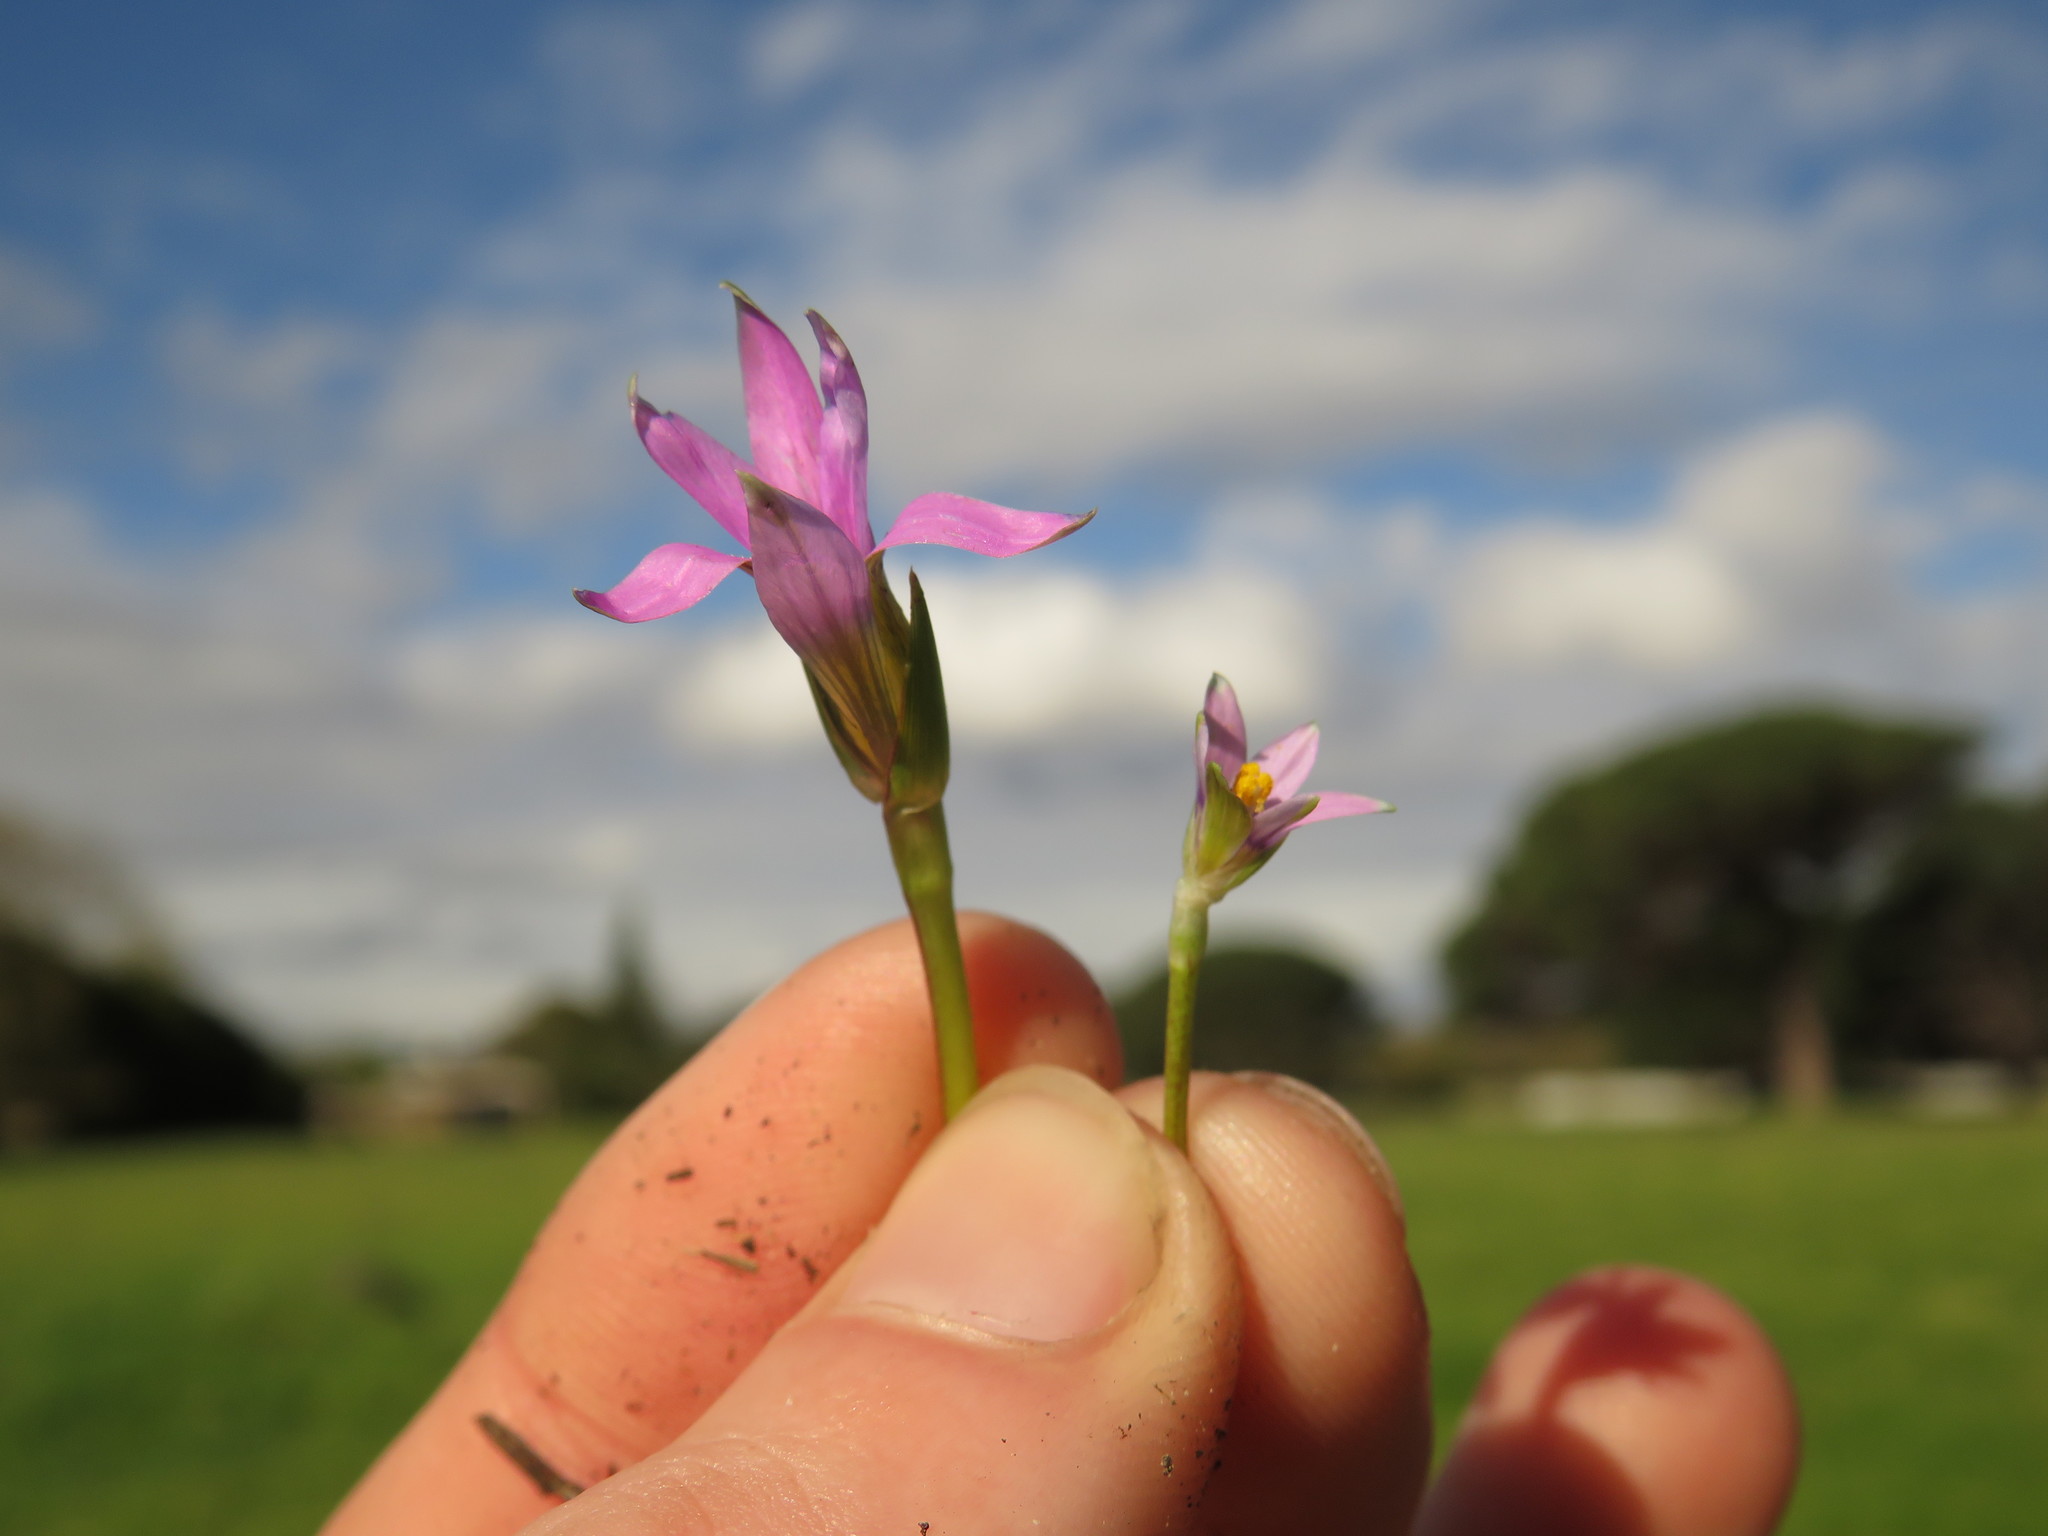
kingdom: Plantae
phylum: Tracheophyta
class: Liliopsida
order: Asparagales
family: Iridaceae
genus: Romulea
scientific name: Romulea minutiflora
